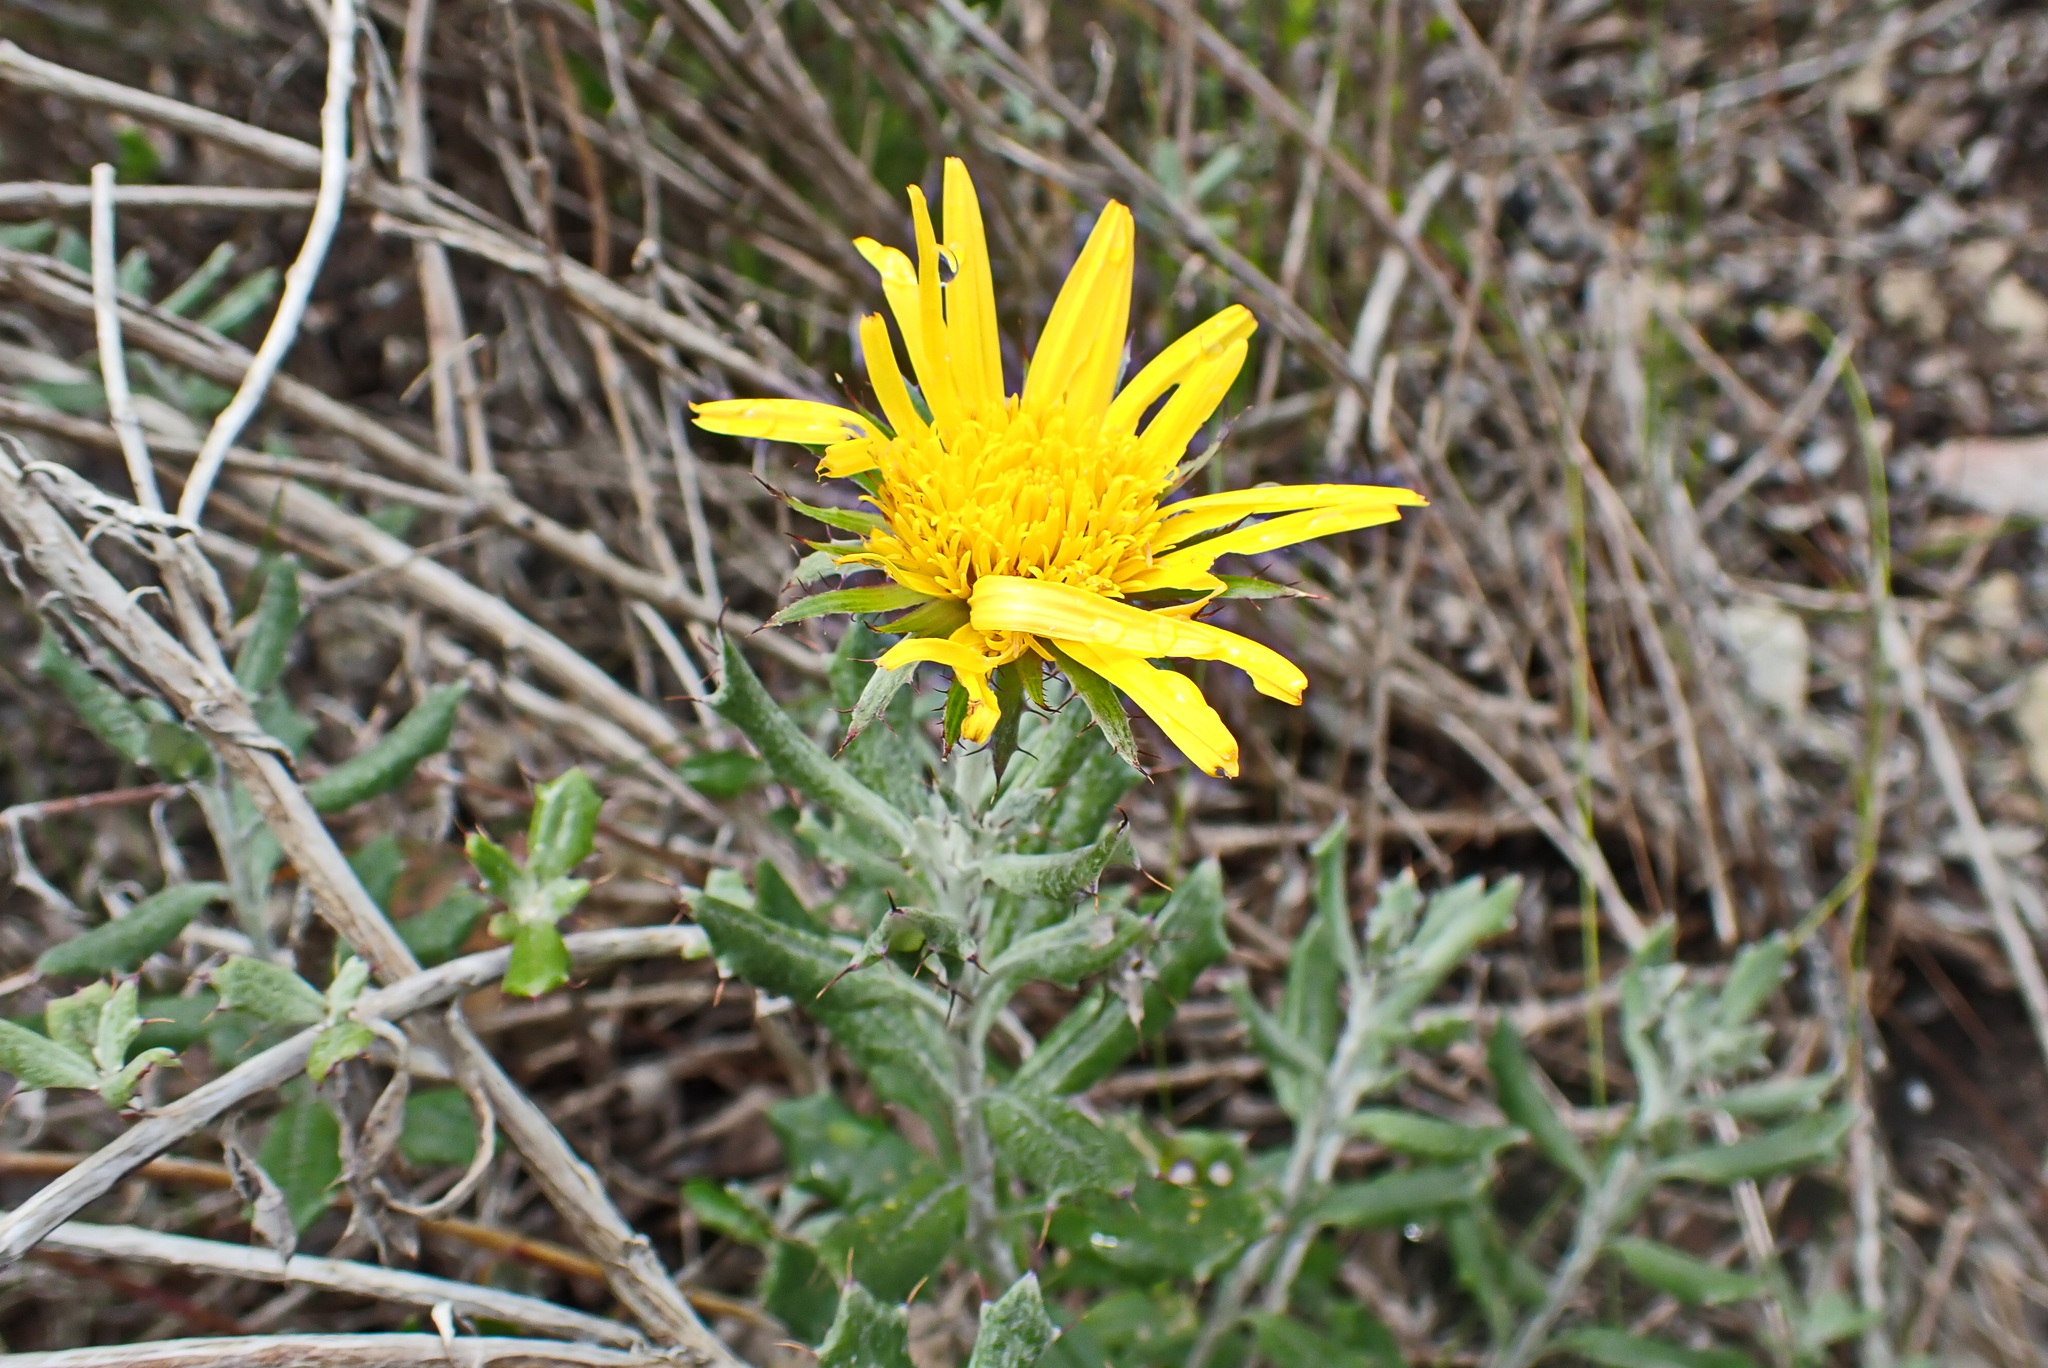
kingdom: Plantae
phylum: Tracheophyta
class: Magnoliopsida
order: Asterales
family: Asteraceae
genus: Berkheya
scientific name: Berkheya coriacea
